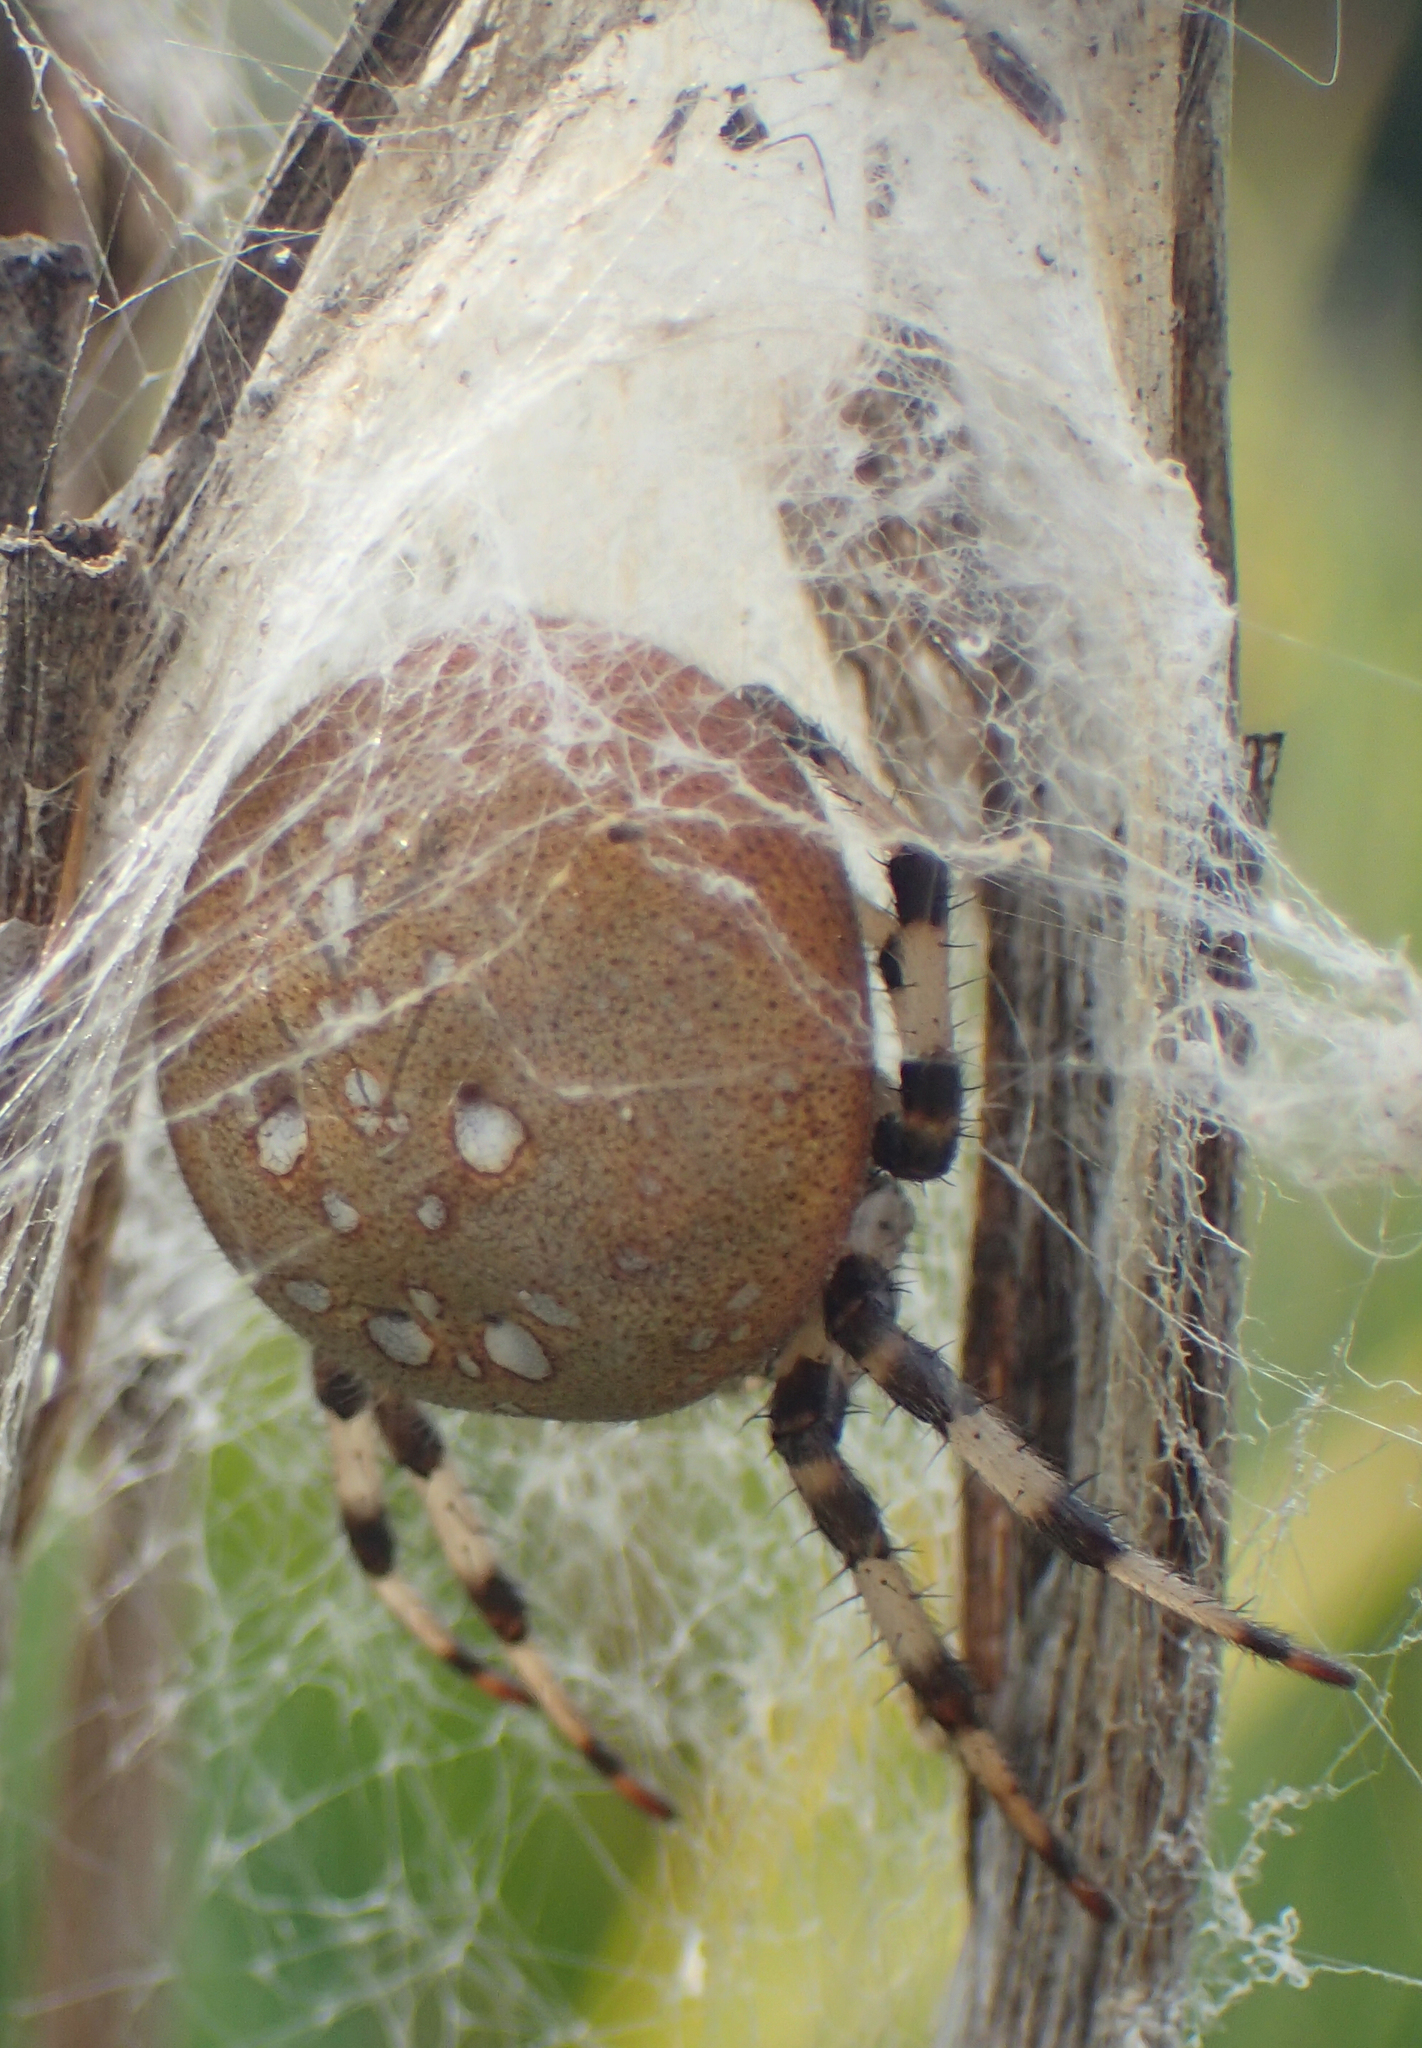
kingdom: Animalia
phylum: Arthropoda
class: Arachnida
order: Araneae
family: Araneidae
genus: Araneus
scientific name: Araneus trifolium
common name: Shamrock orbweaver
